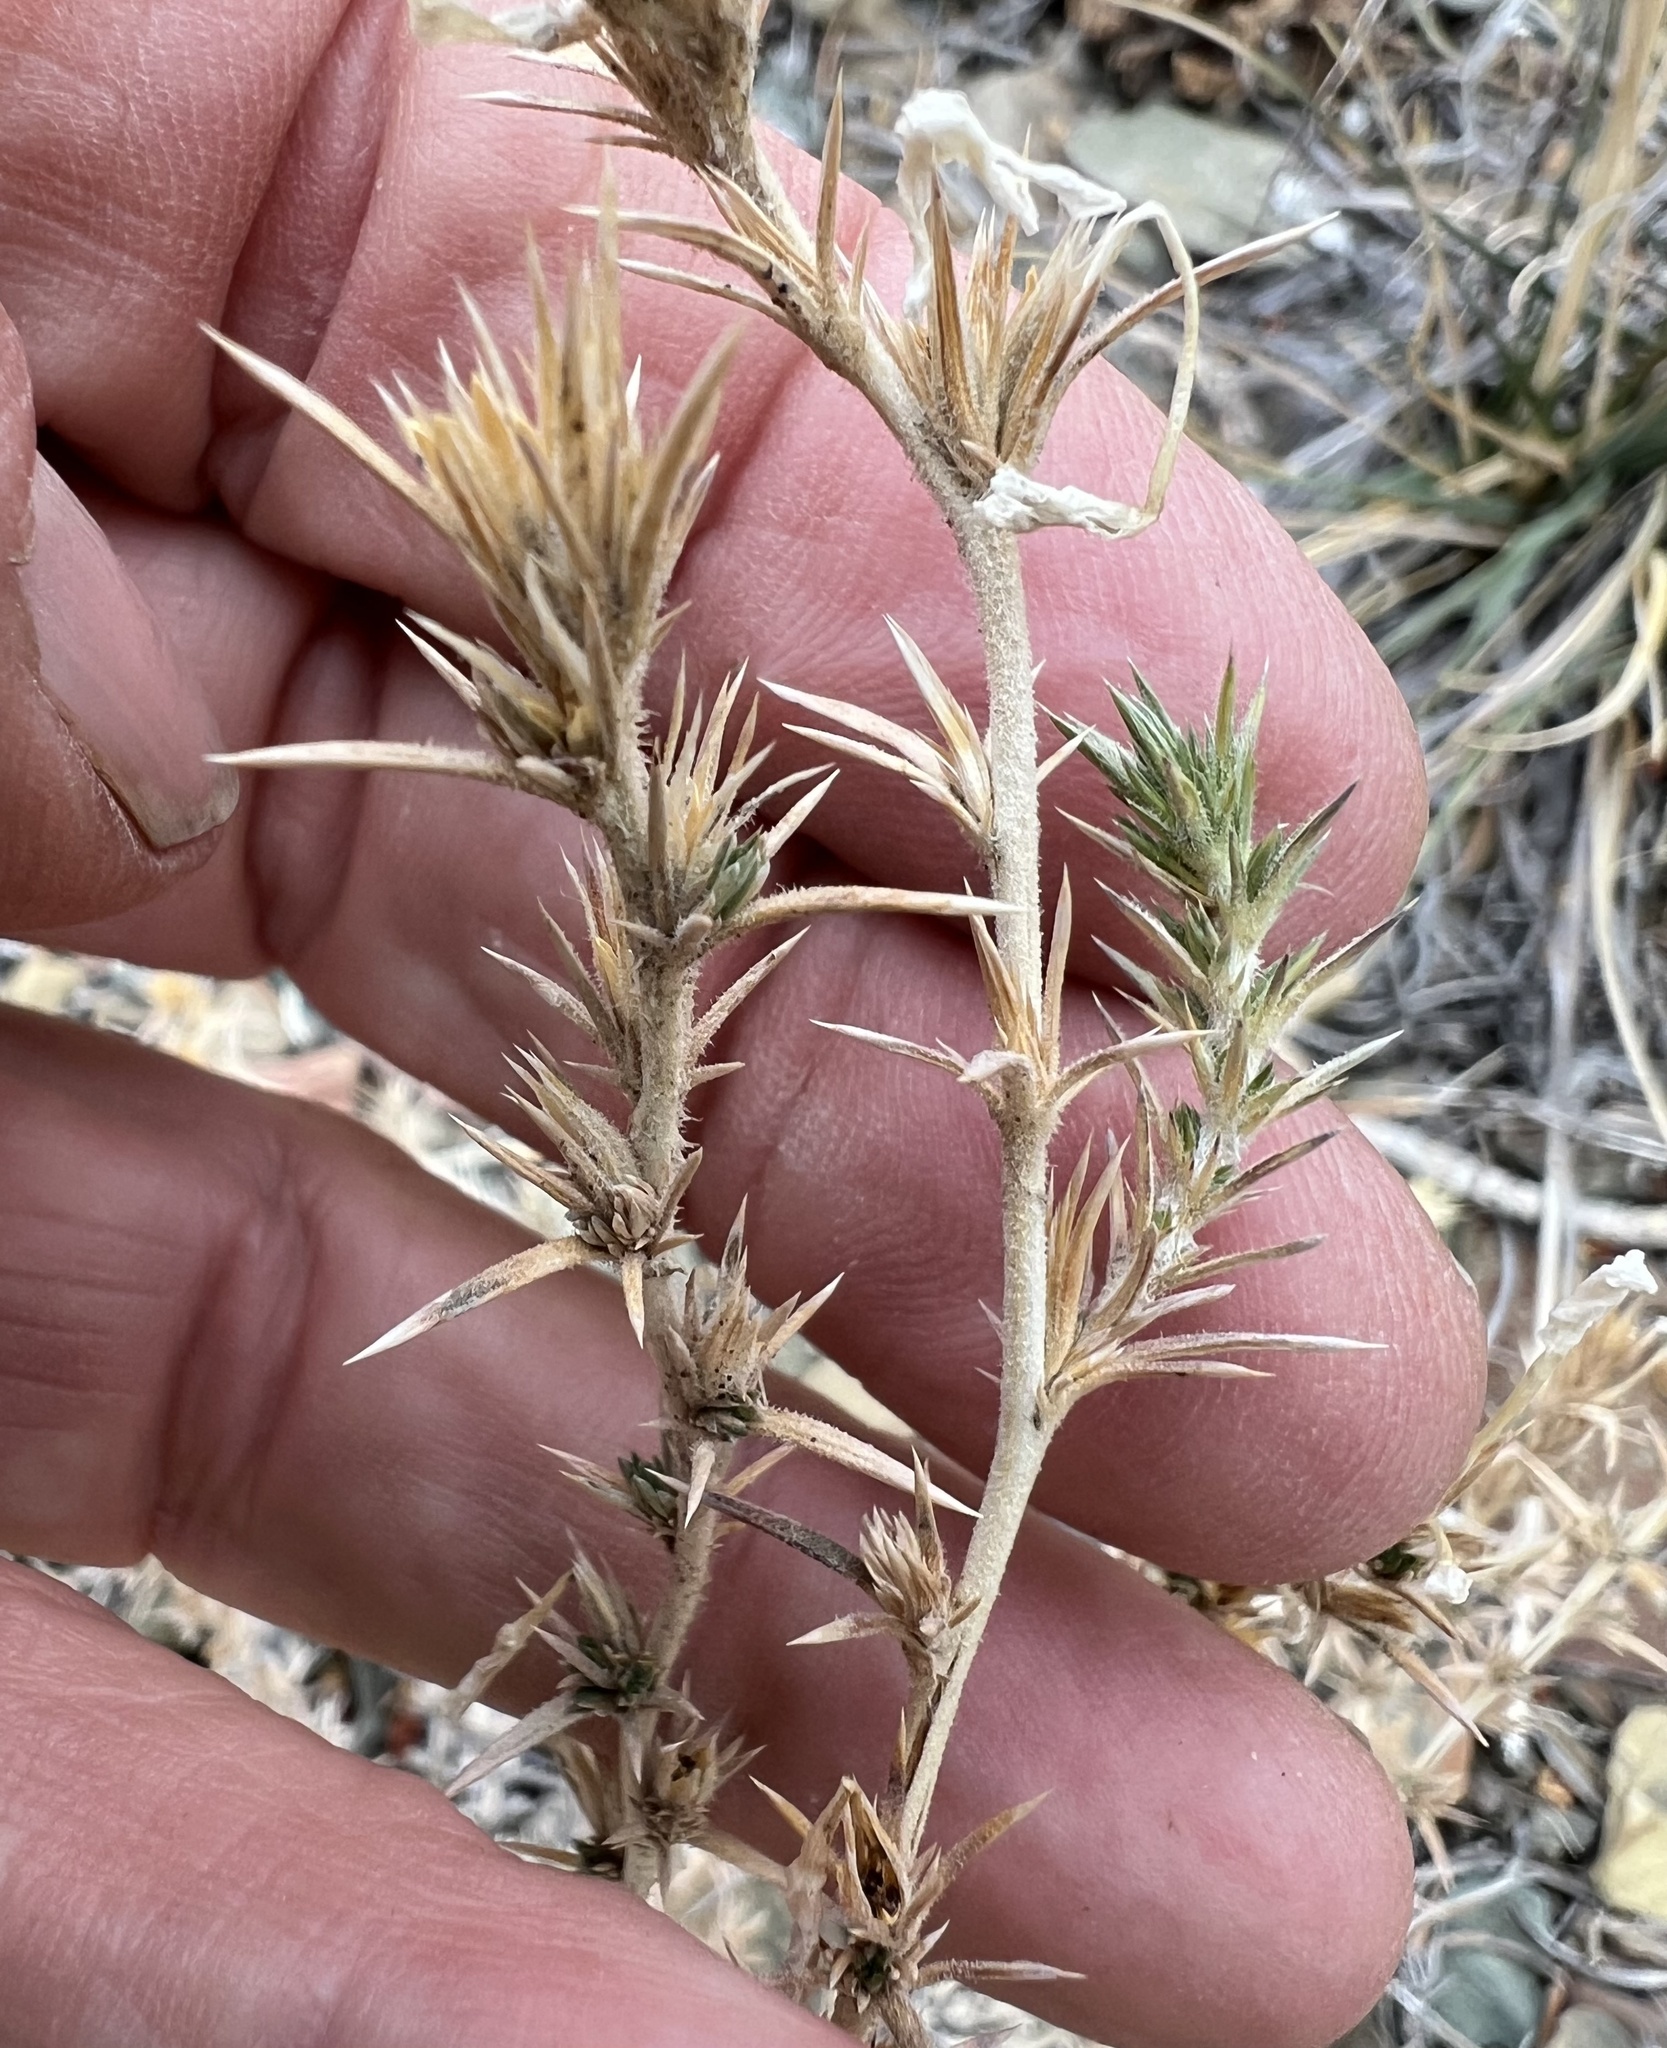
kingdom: Plantae
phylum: Tracheophyta
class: Magnoliopsida
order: Ericales
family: Polemoniaceae
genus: Linanthus
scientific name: Linanthus pungens
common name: Granite prickly phlox
